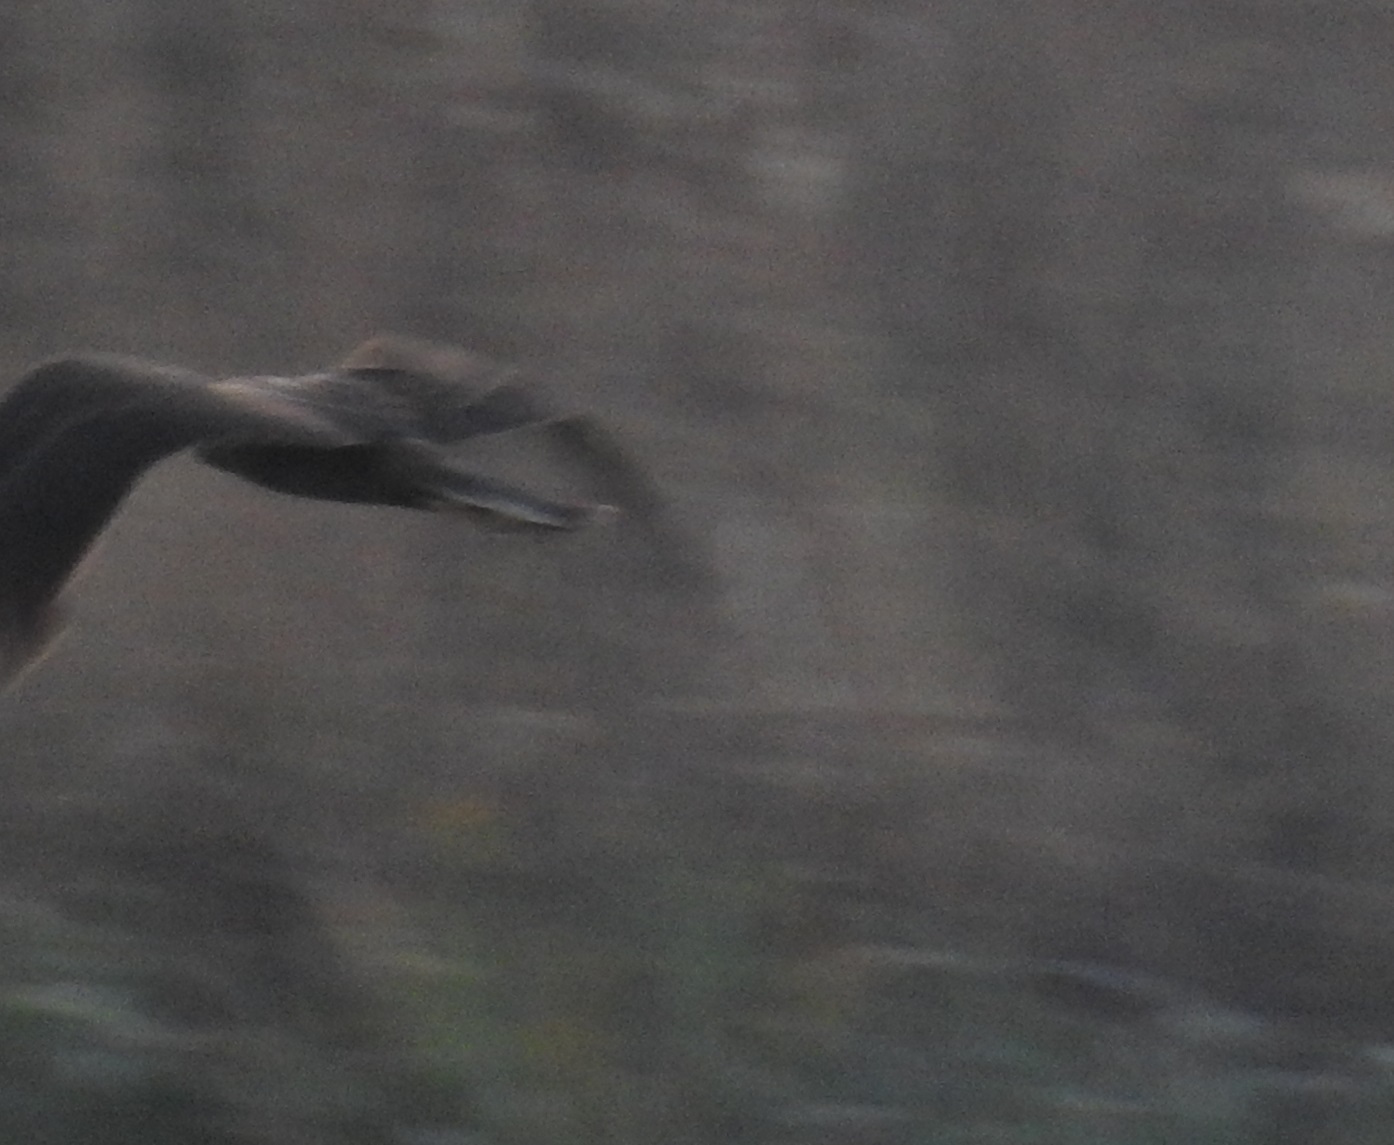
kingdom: Animalia
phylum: Chordata
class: Aves
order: Accipitriformes
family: Accipitridae
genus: Circus
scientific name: Circus aeruginosus
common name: Western marsh harrier
